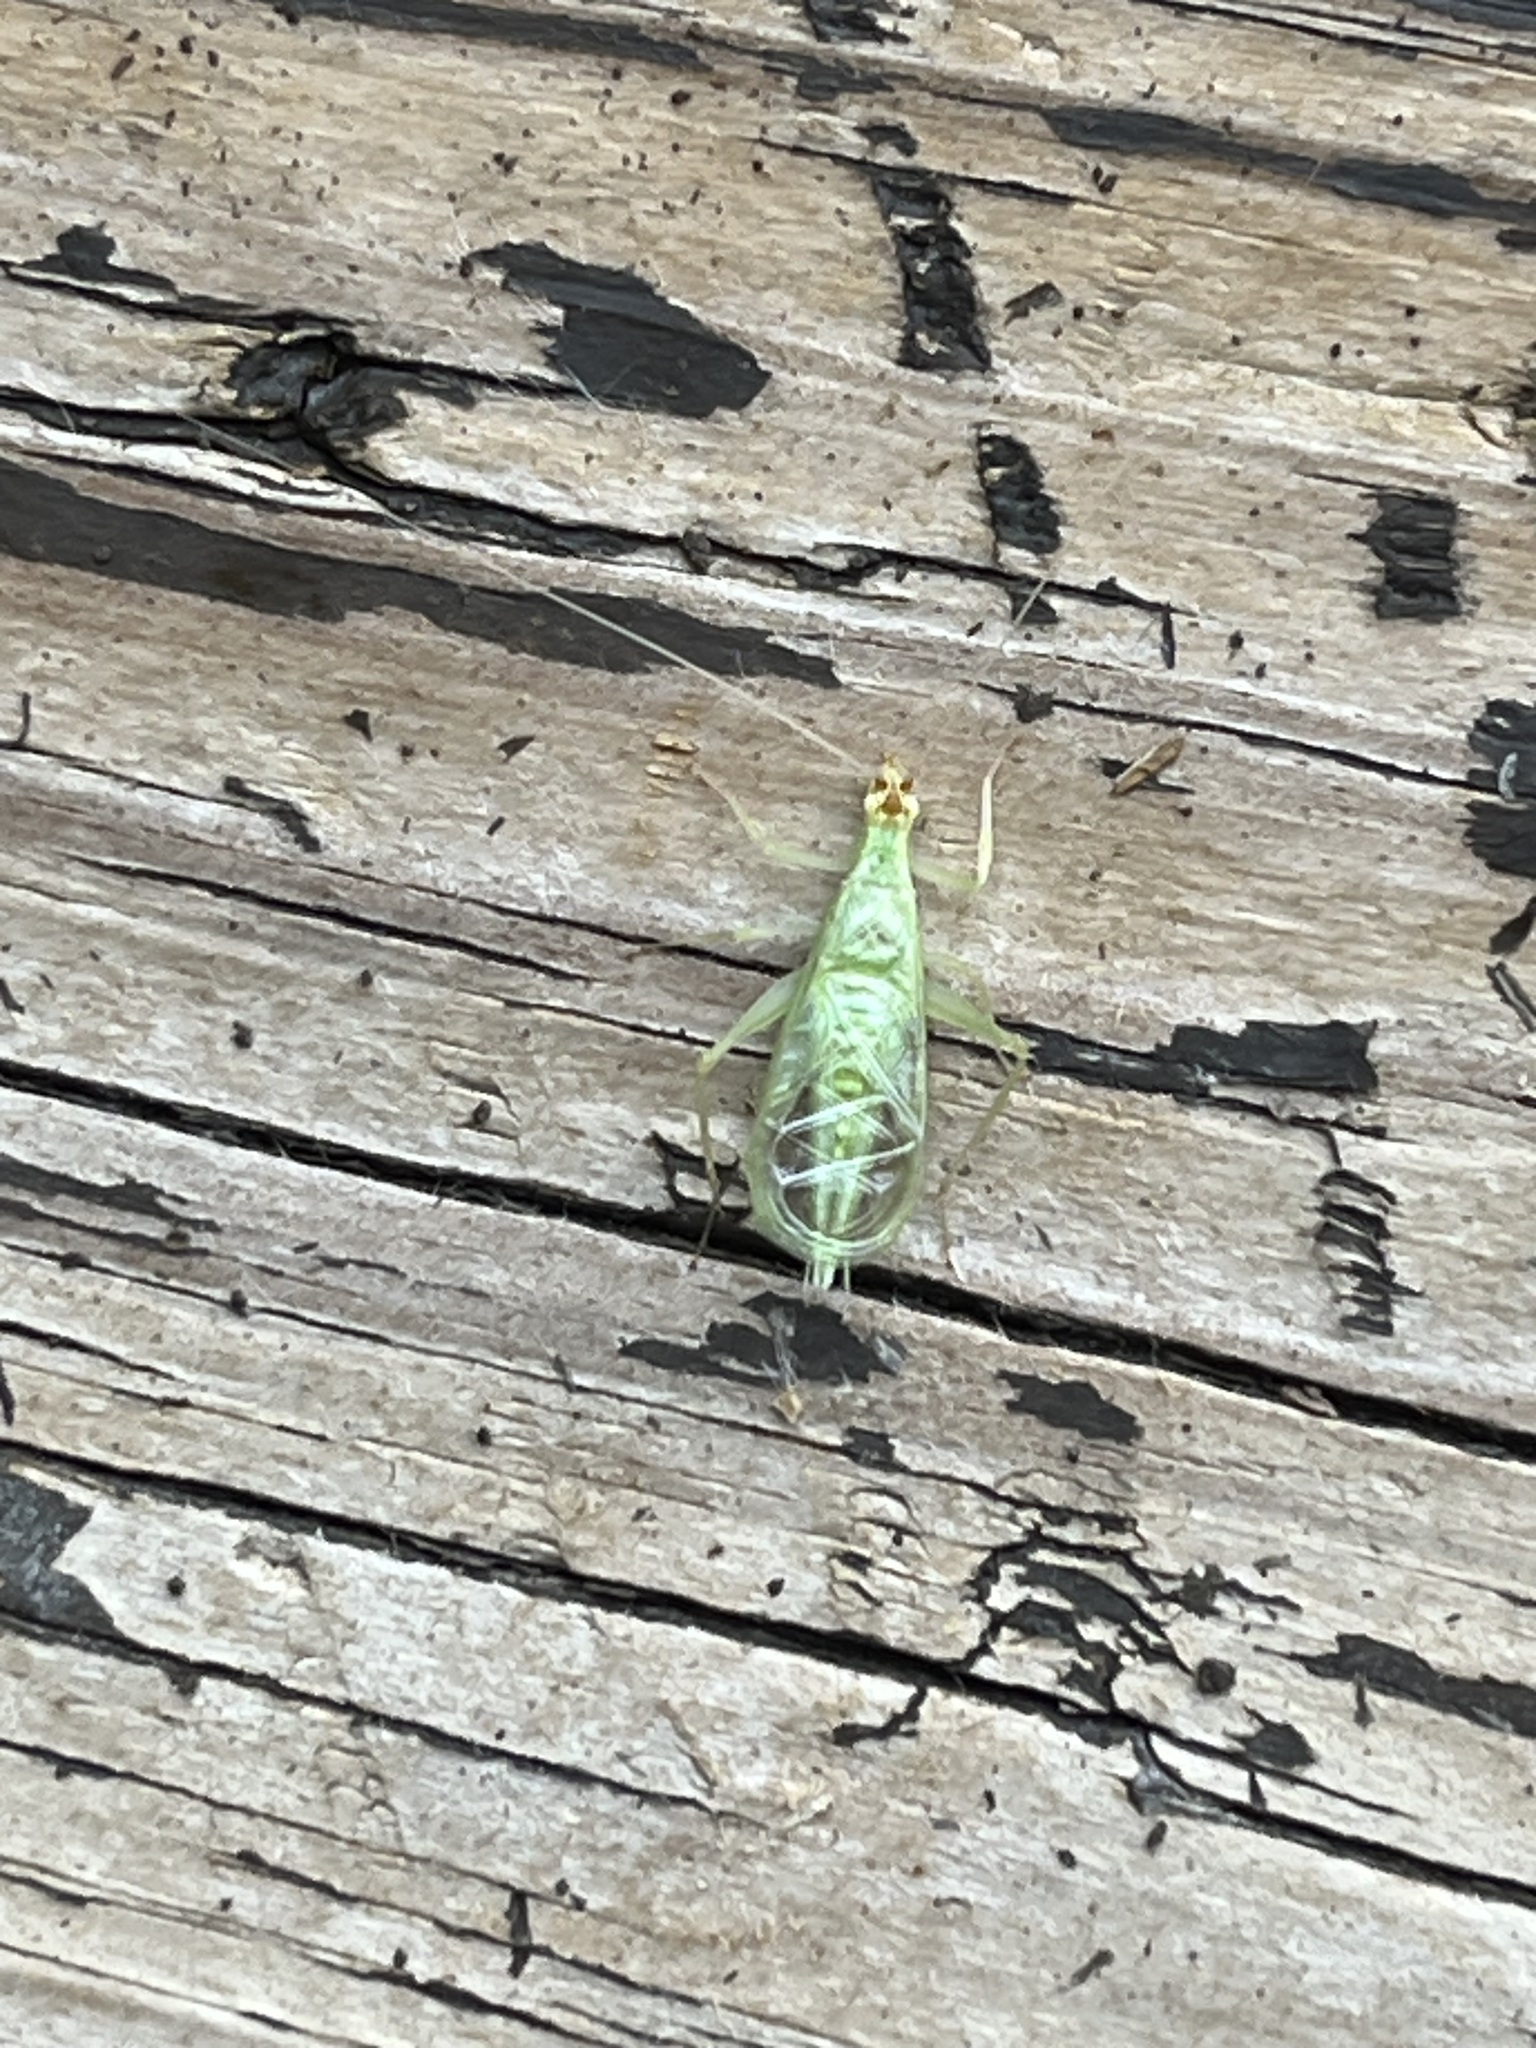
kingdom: Animalia
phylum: Arthropoda
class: Insecta
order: Orthoptera
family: Gryllidae
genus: Oecanthus
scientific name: Oecanthus fultoni
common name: Snowy tree cricket
